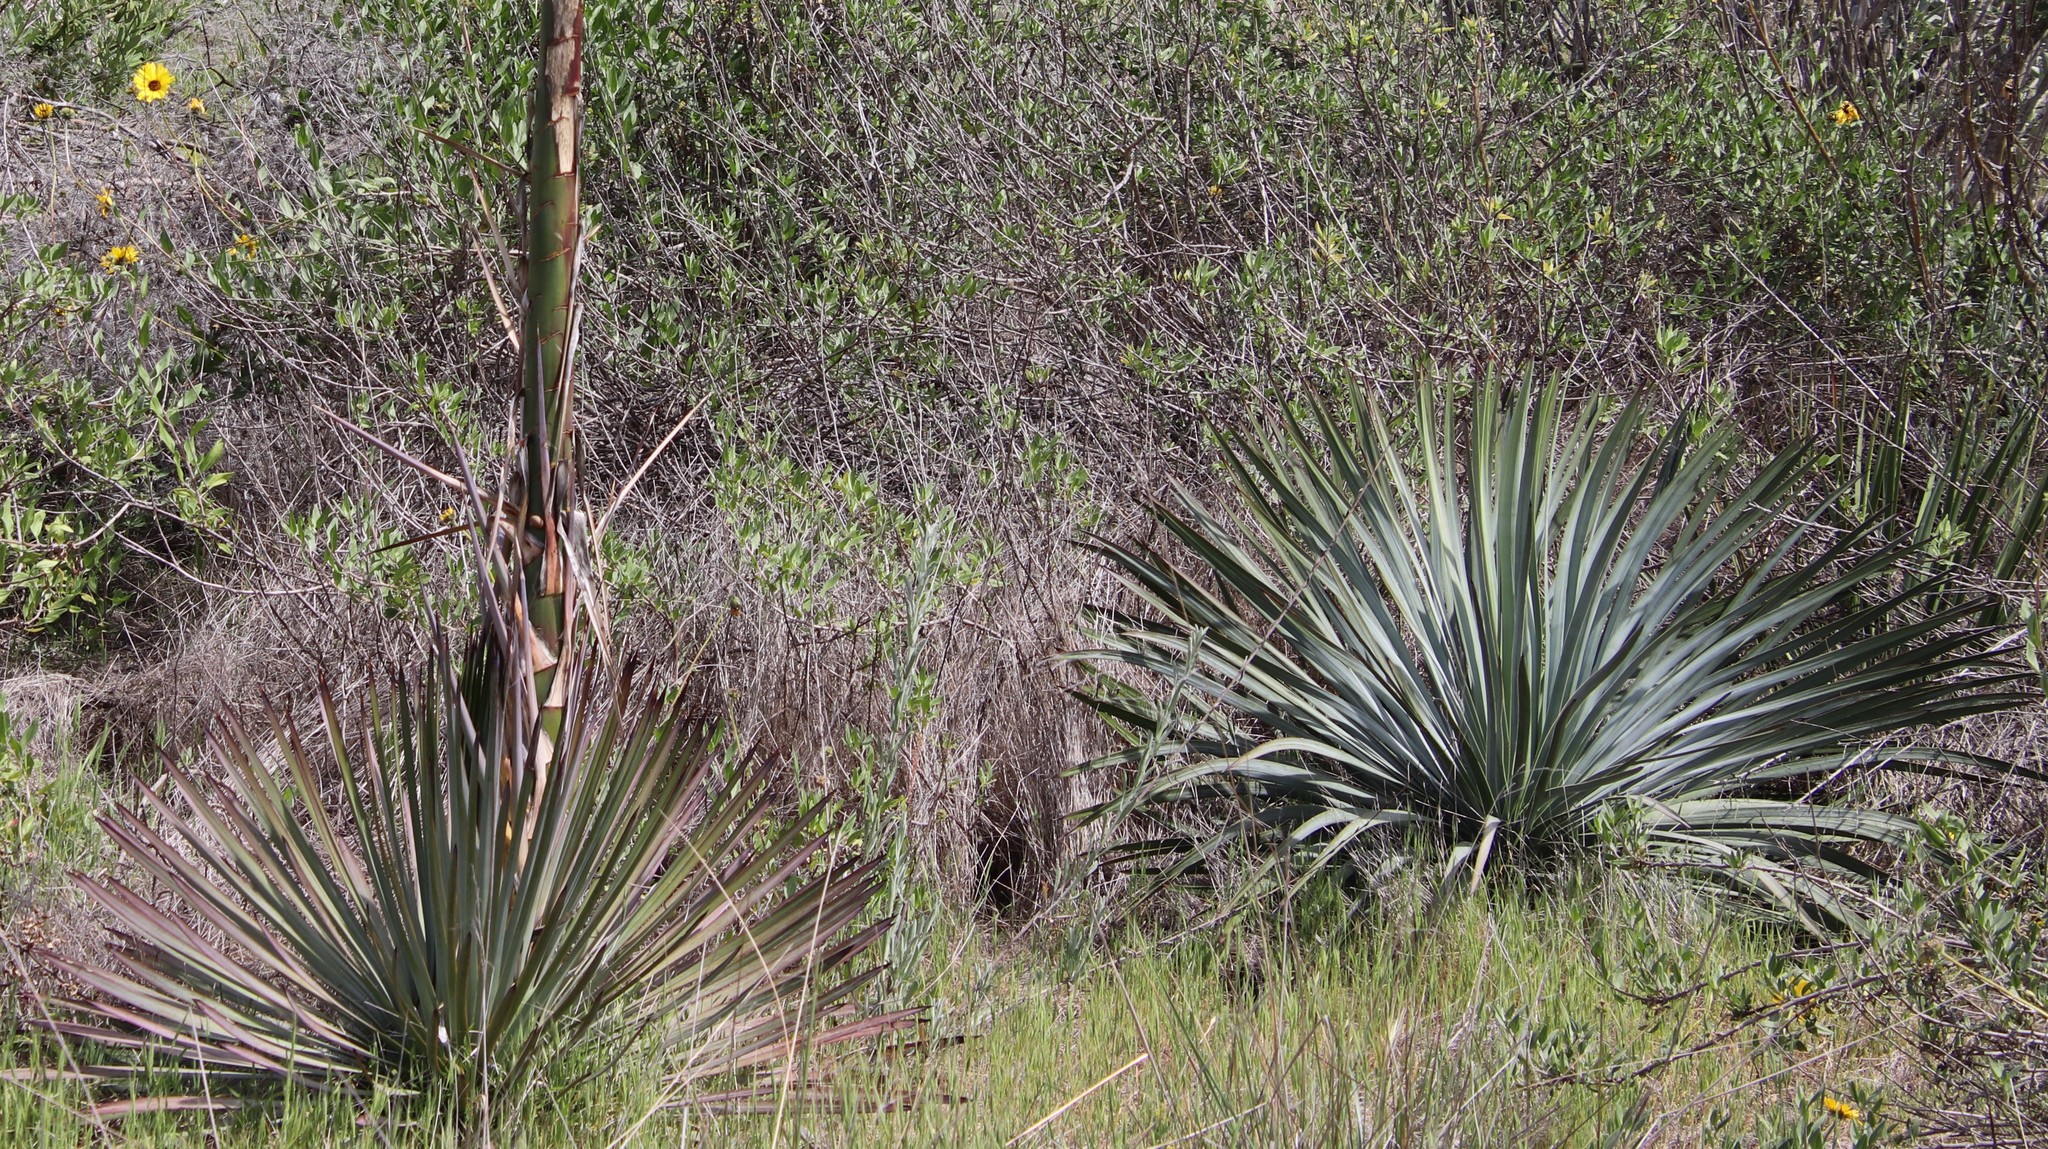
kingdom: Plantae
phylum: Tracheophyta
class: Liliopsida
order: Asparagales
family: Asparagaceae
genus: Hesperoyucca
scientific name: Hesperoyucca whipplei
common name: Our lord's-candle
